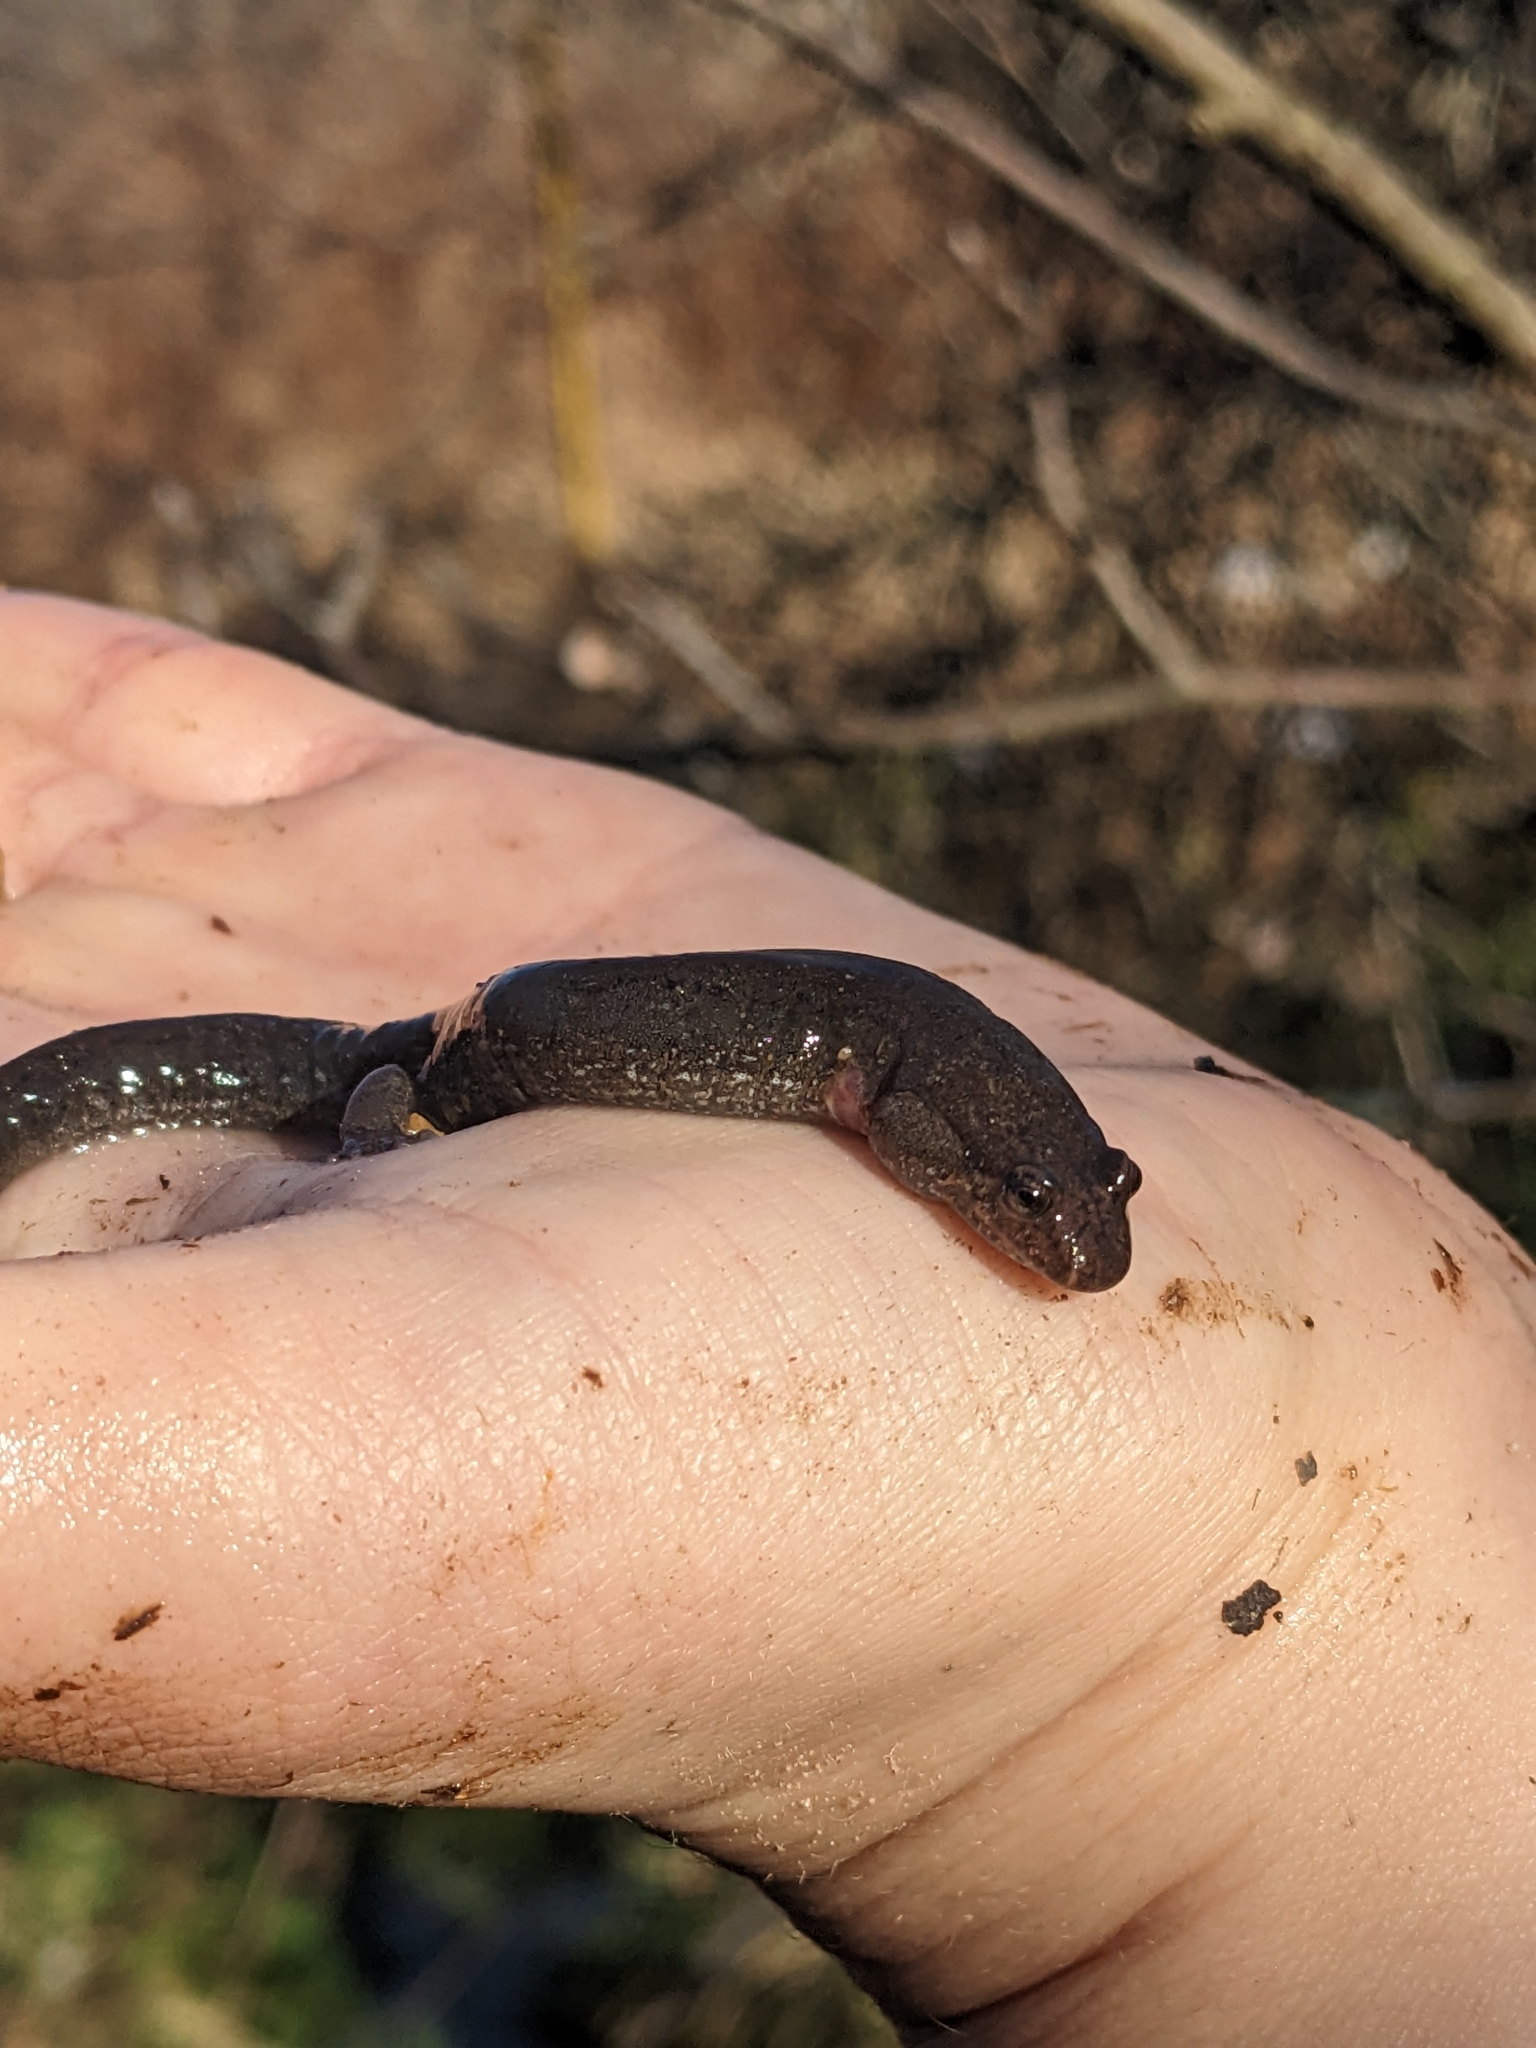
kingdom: Animalia
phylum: Chordata
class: Amphibia
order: Caudata
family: Plethodontidae
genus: Desmognathus
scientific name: Desmognathus fuscus
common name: Northern dusky salamander
